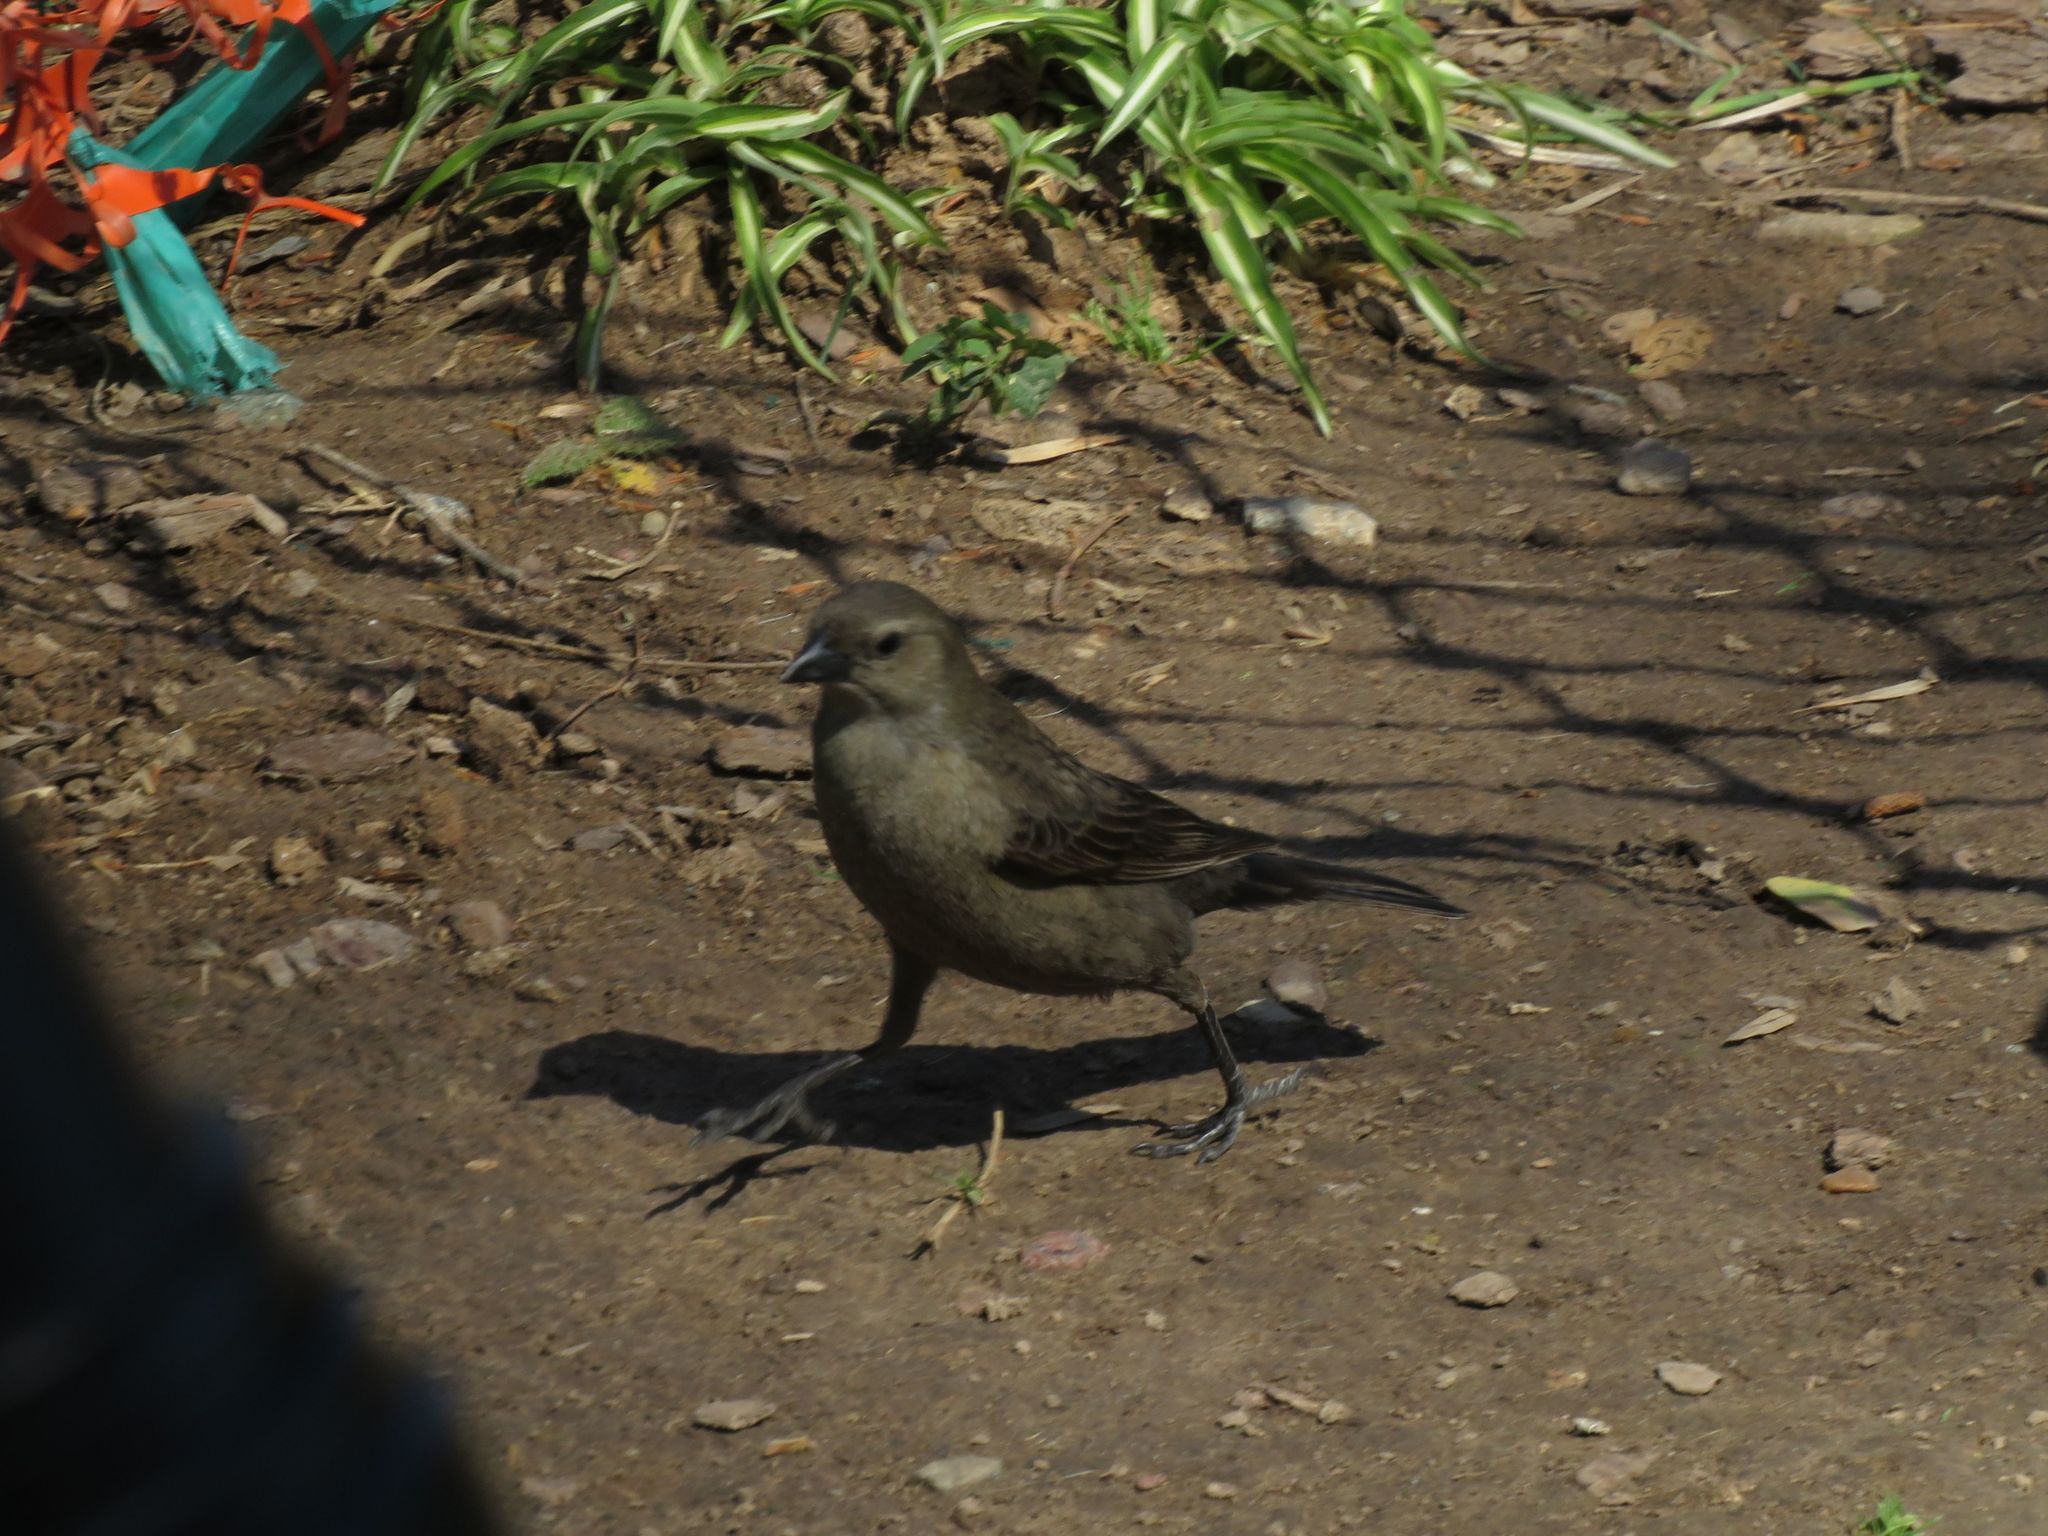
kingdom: Animalia
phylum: Chordata
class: Aves
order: Passeriformes
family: Icteridae
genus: Molothrus
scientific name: Molothrus bonariensis
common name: Shiny cowbird
